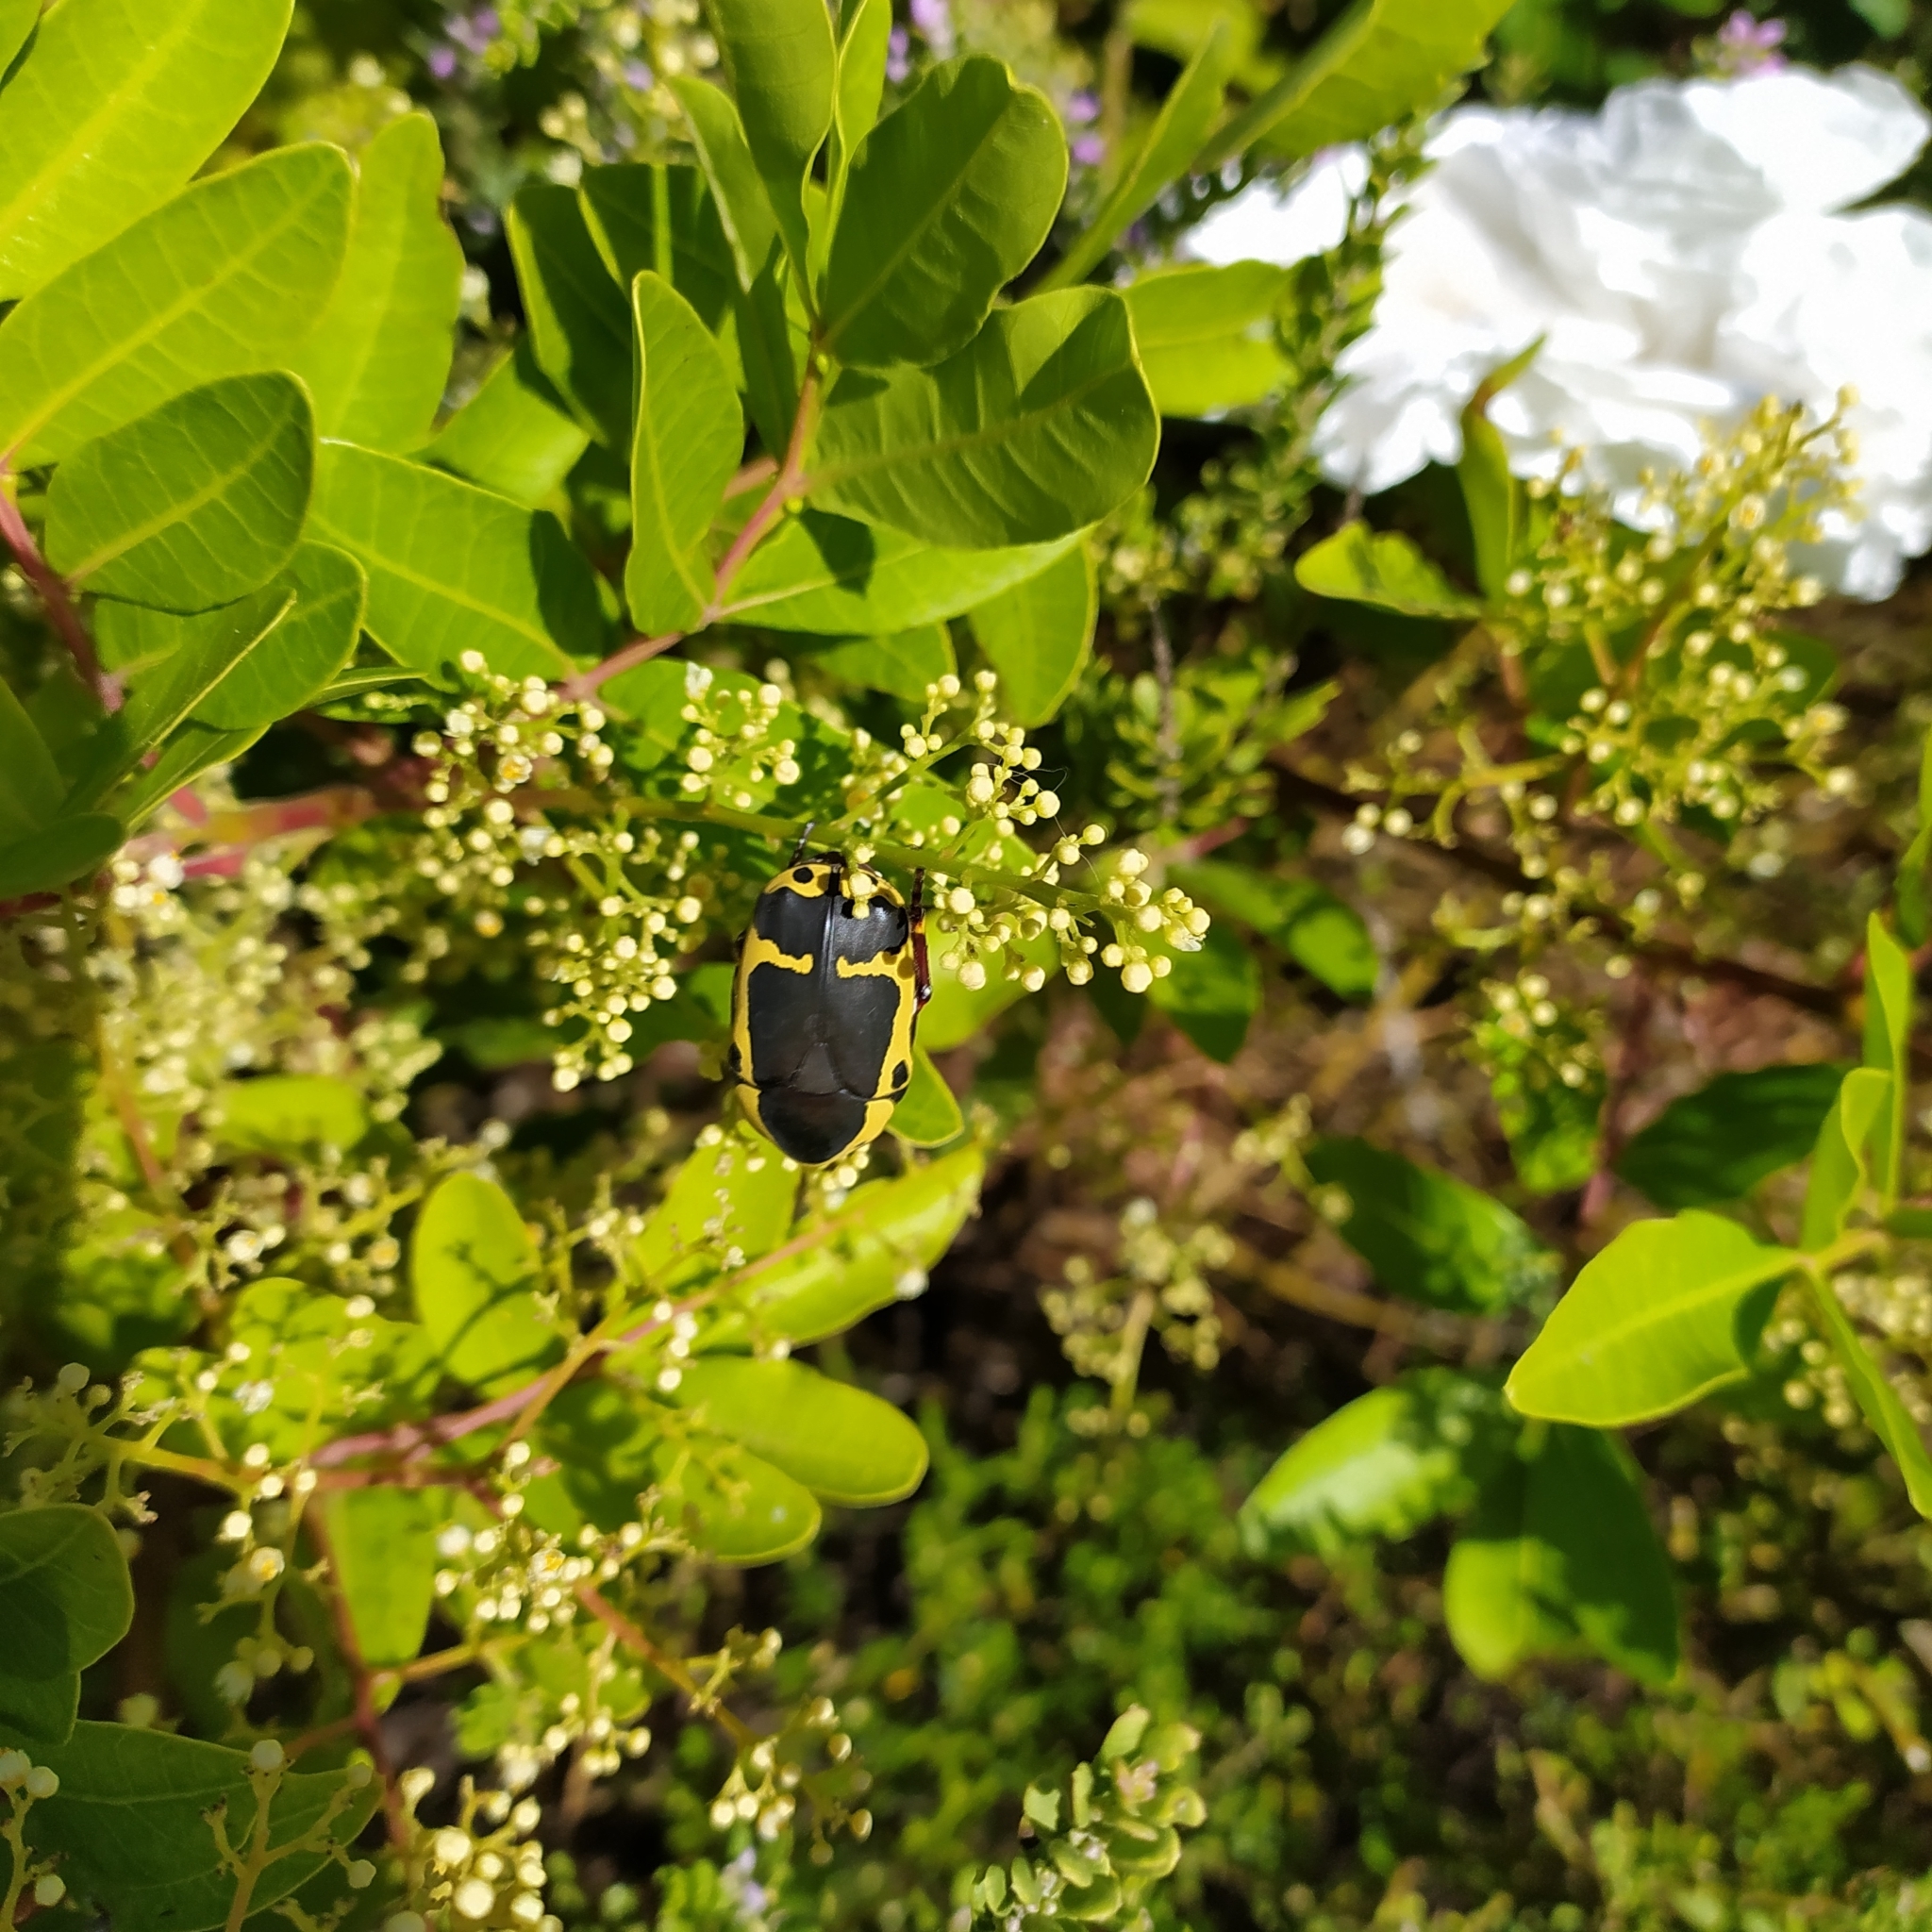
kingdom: Animalia
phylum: Arthropoda
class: Insecta
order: Coleoptera
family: Scarabaeidae
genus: Pachnoda
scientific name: Pachnoda sinuata
